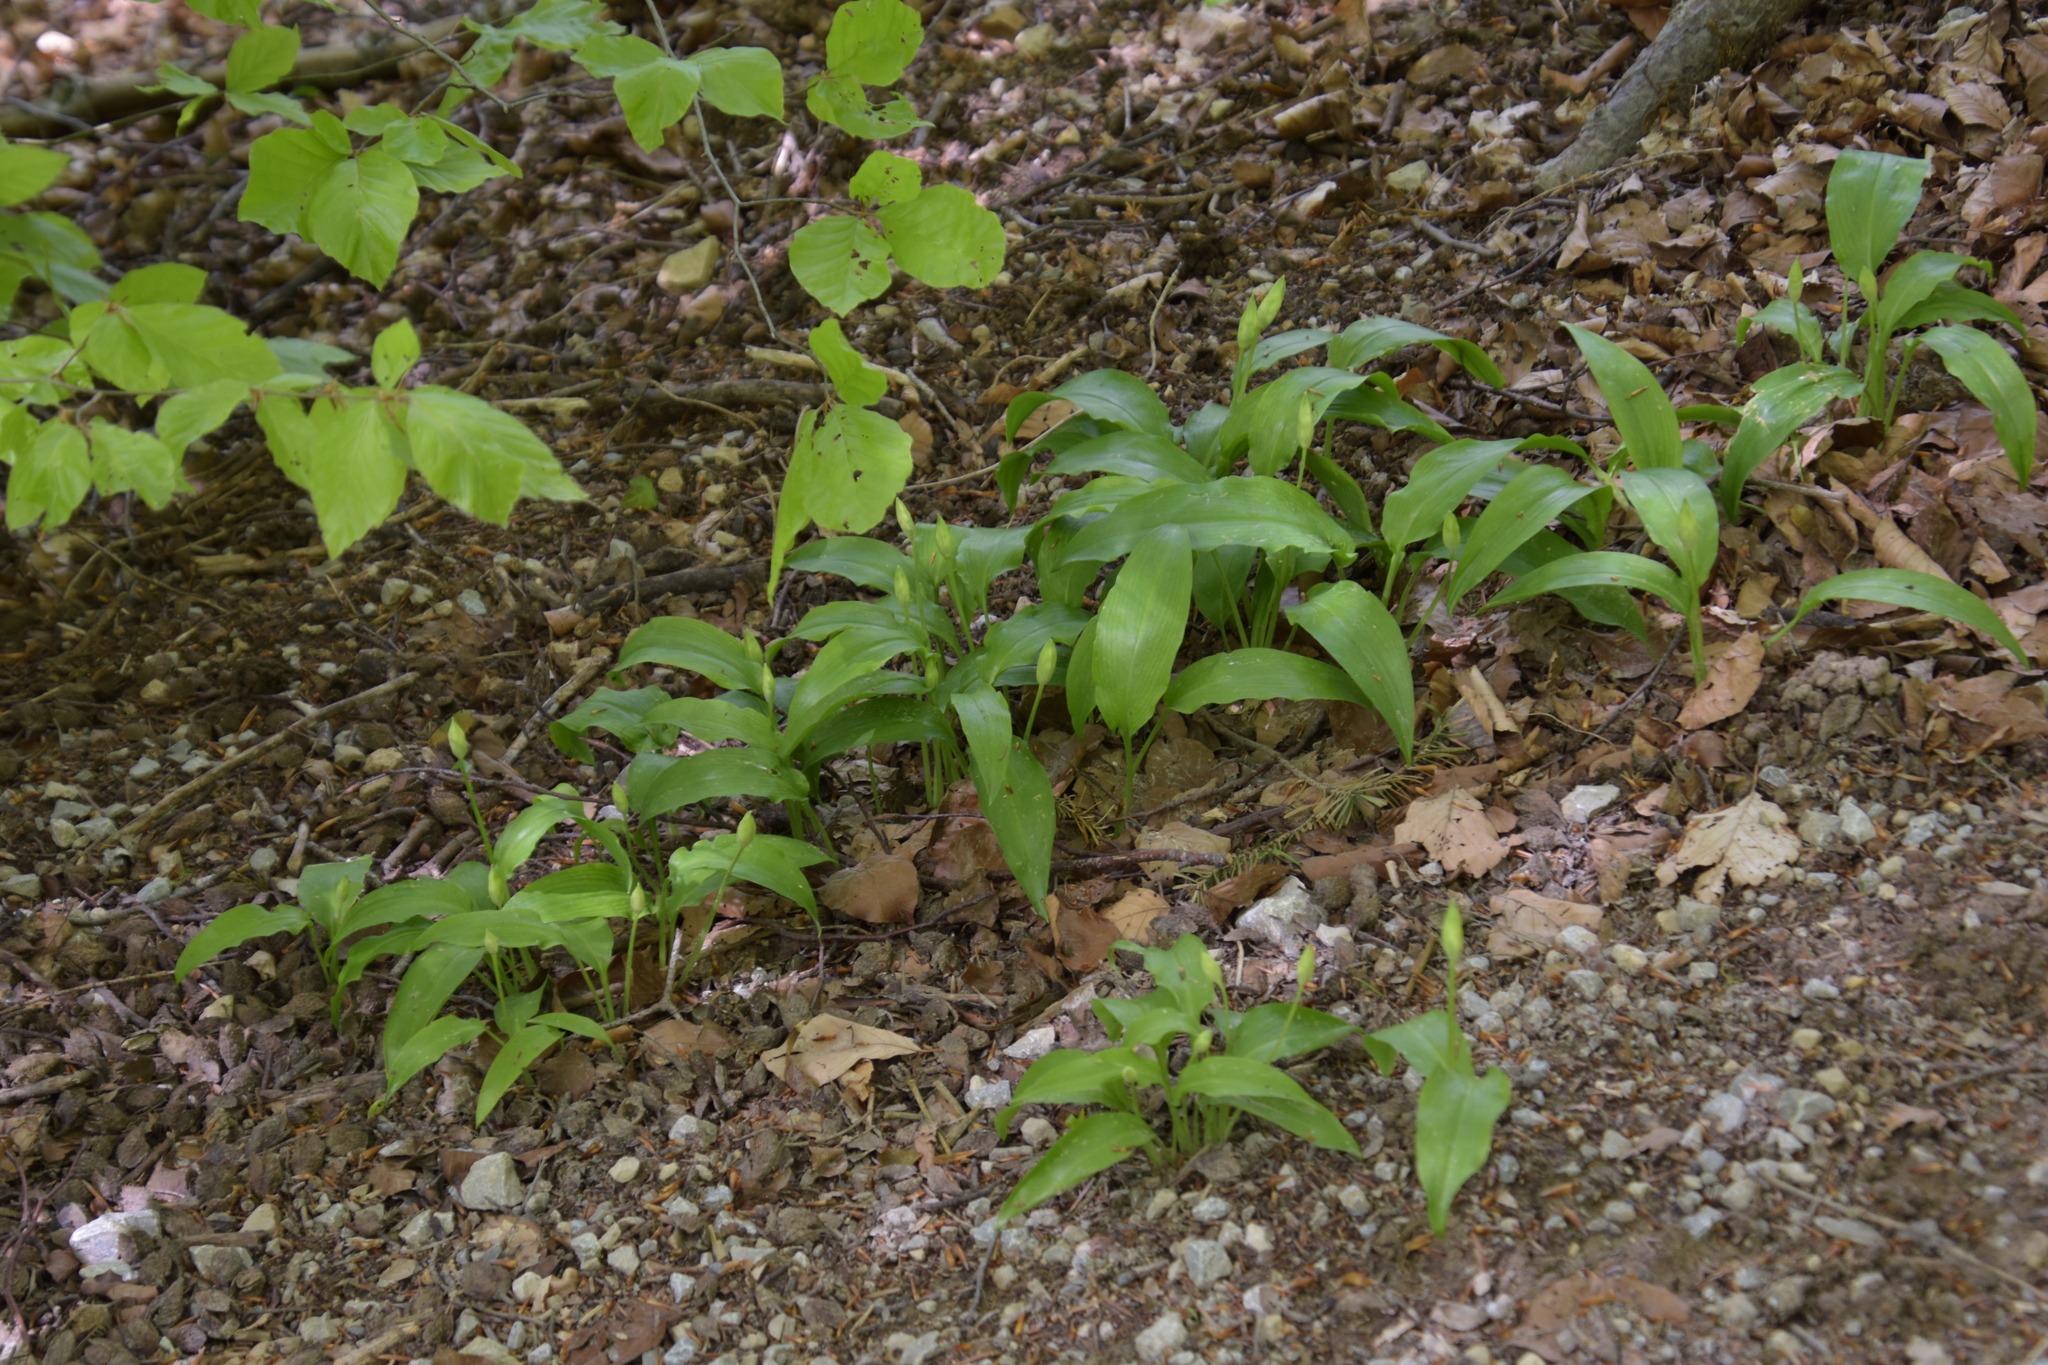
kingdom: Plantae
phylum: Tracheophyta
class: Liliopsida
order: Asparagales
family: Amaryllidaceae
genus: Allium
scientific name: Allium ursinum
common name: Ramsons
